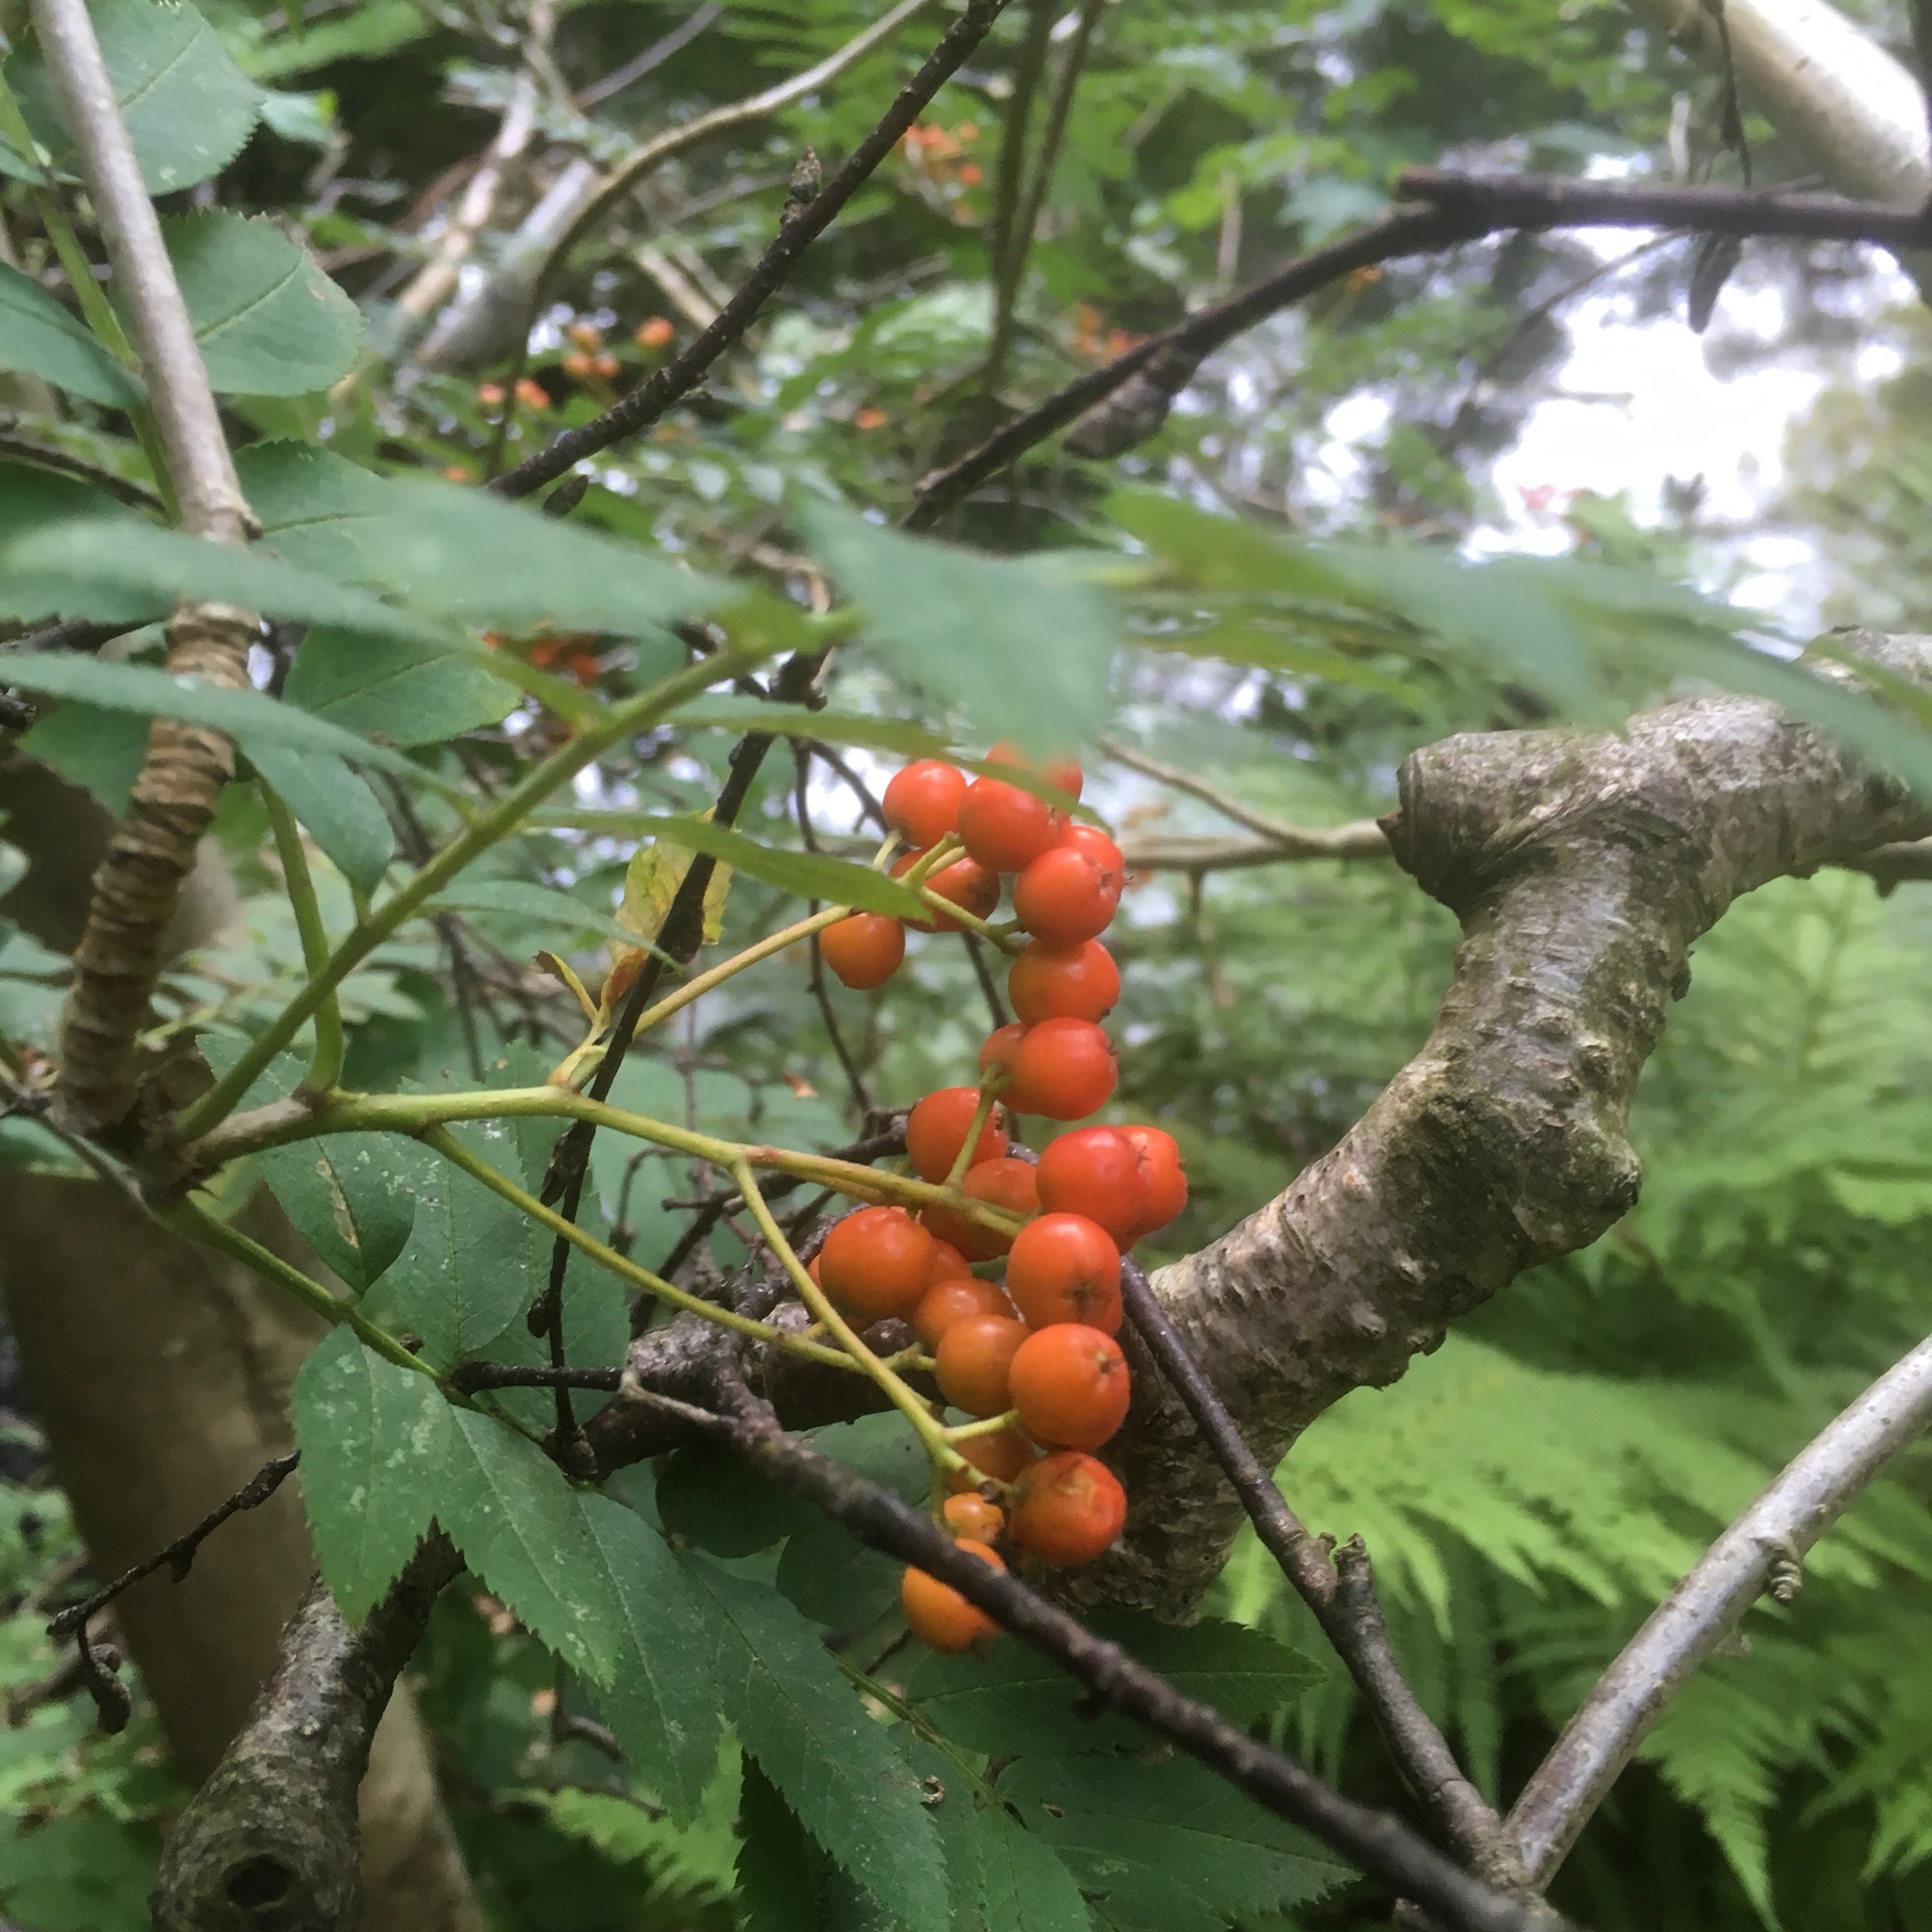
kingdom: Plantae
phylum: Tracheophyta
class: Magnoliopsida
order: Rosales
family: Rosaceae
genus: Sorbus
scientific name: Sorbus aucuparia
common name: Rowan
